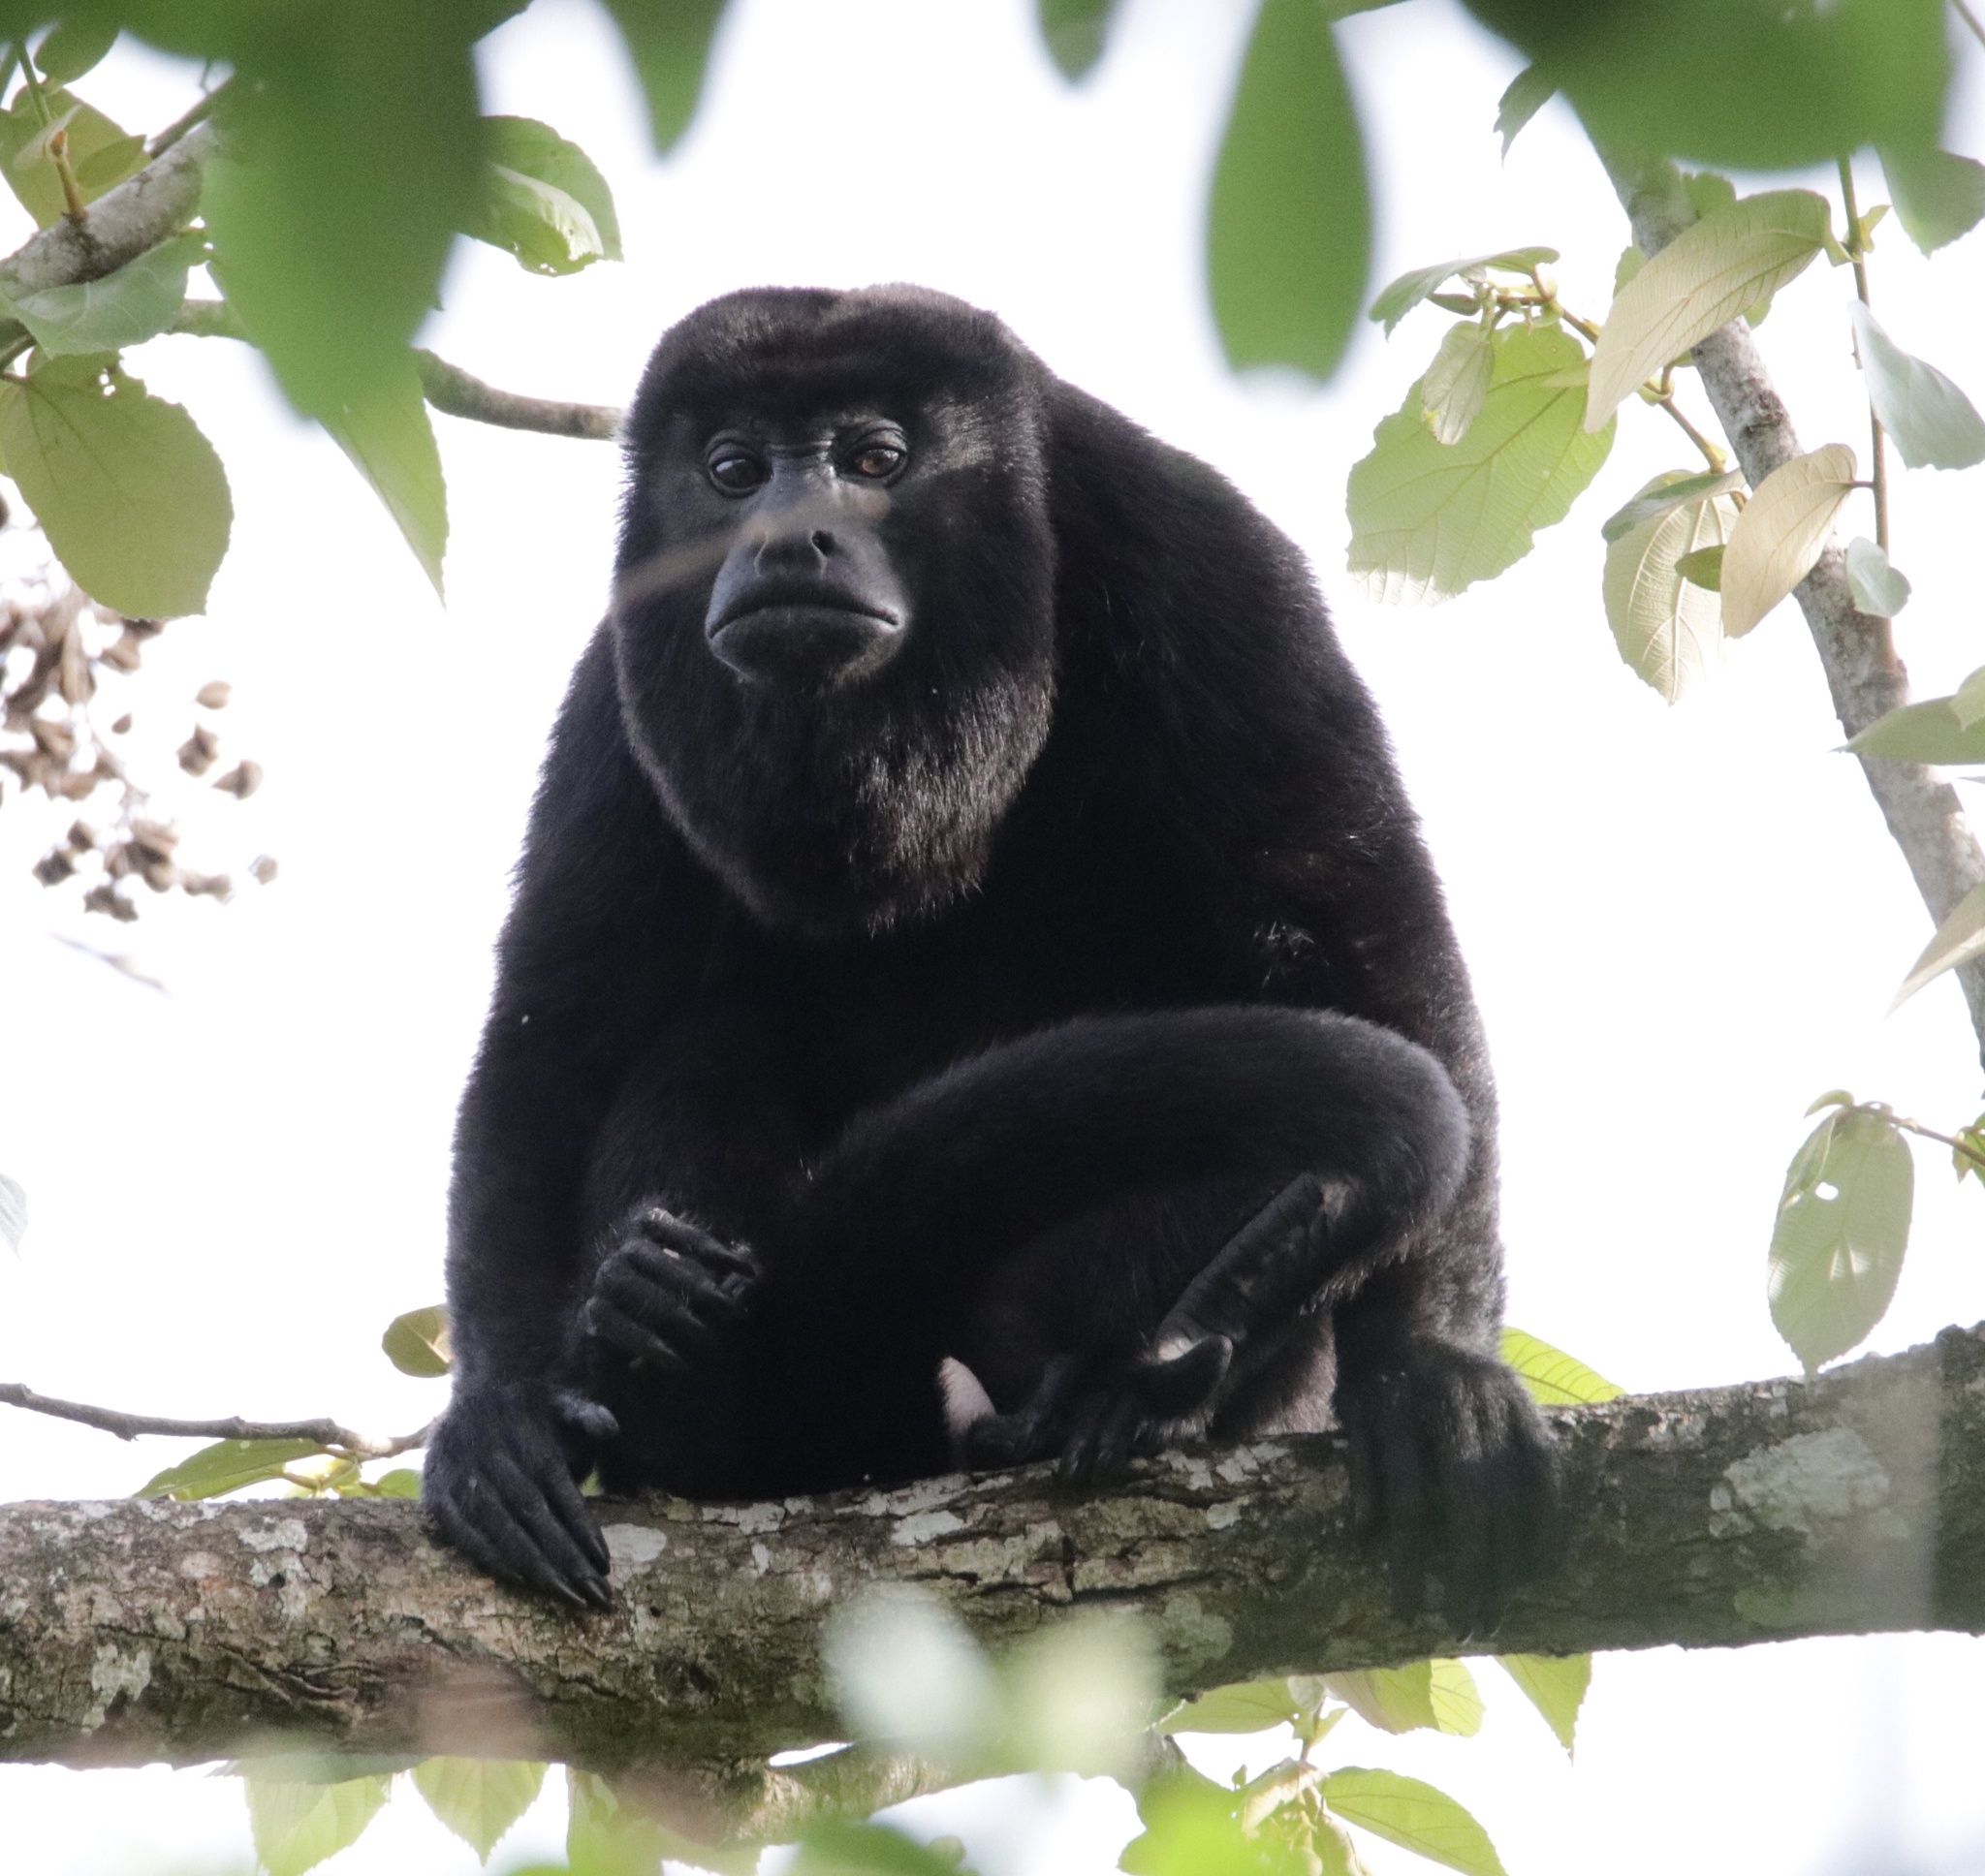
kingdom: Animalia
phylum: Chordata
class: Mammalia
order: Primates
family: Atelidae
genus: Alouatta
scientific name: Alouatta palliata
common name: Mantled howler
